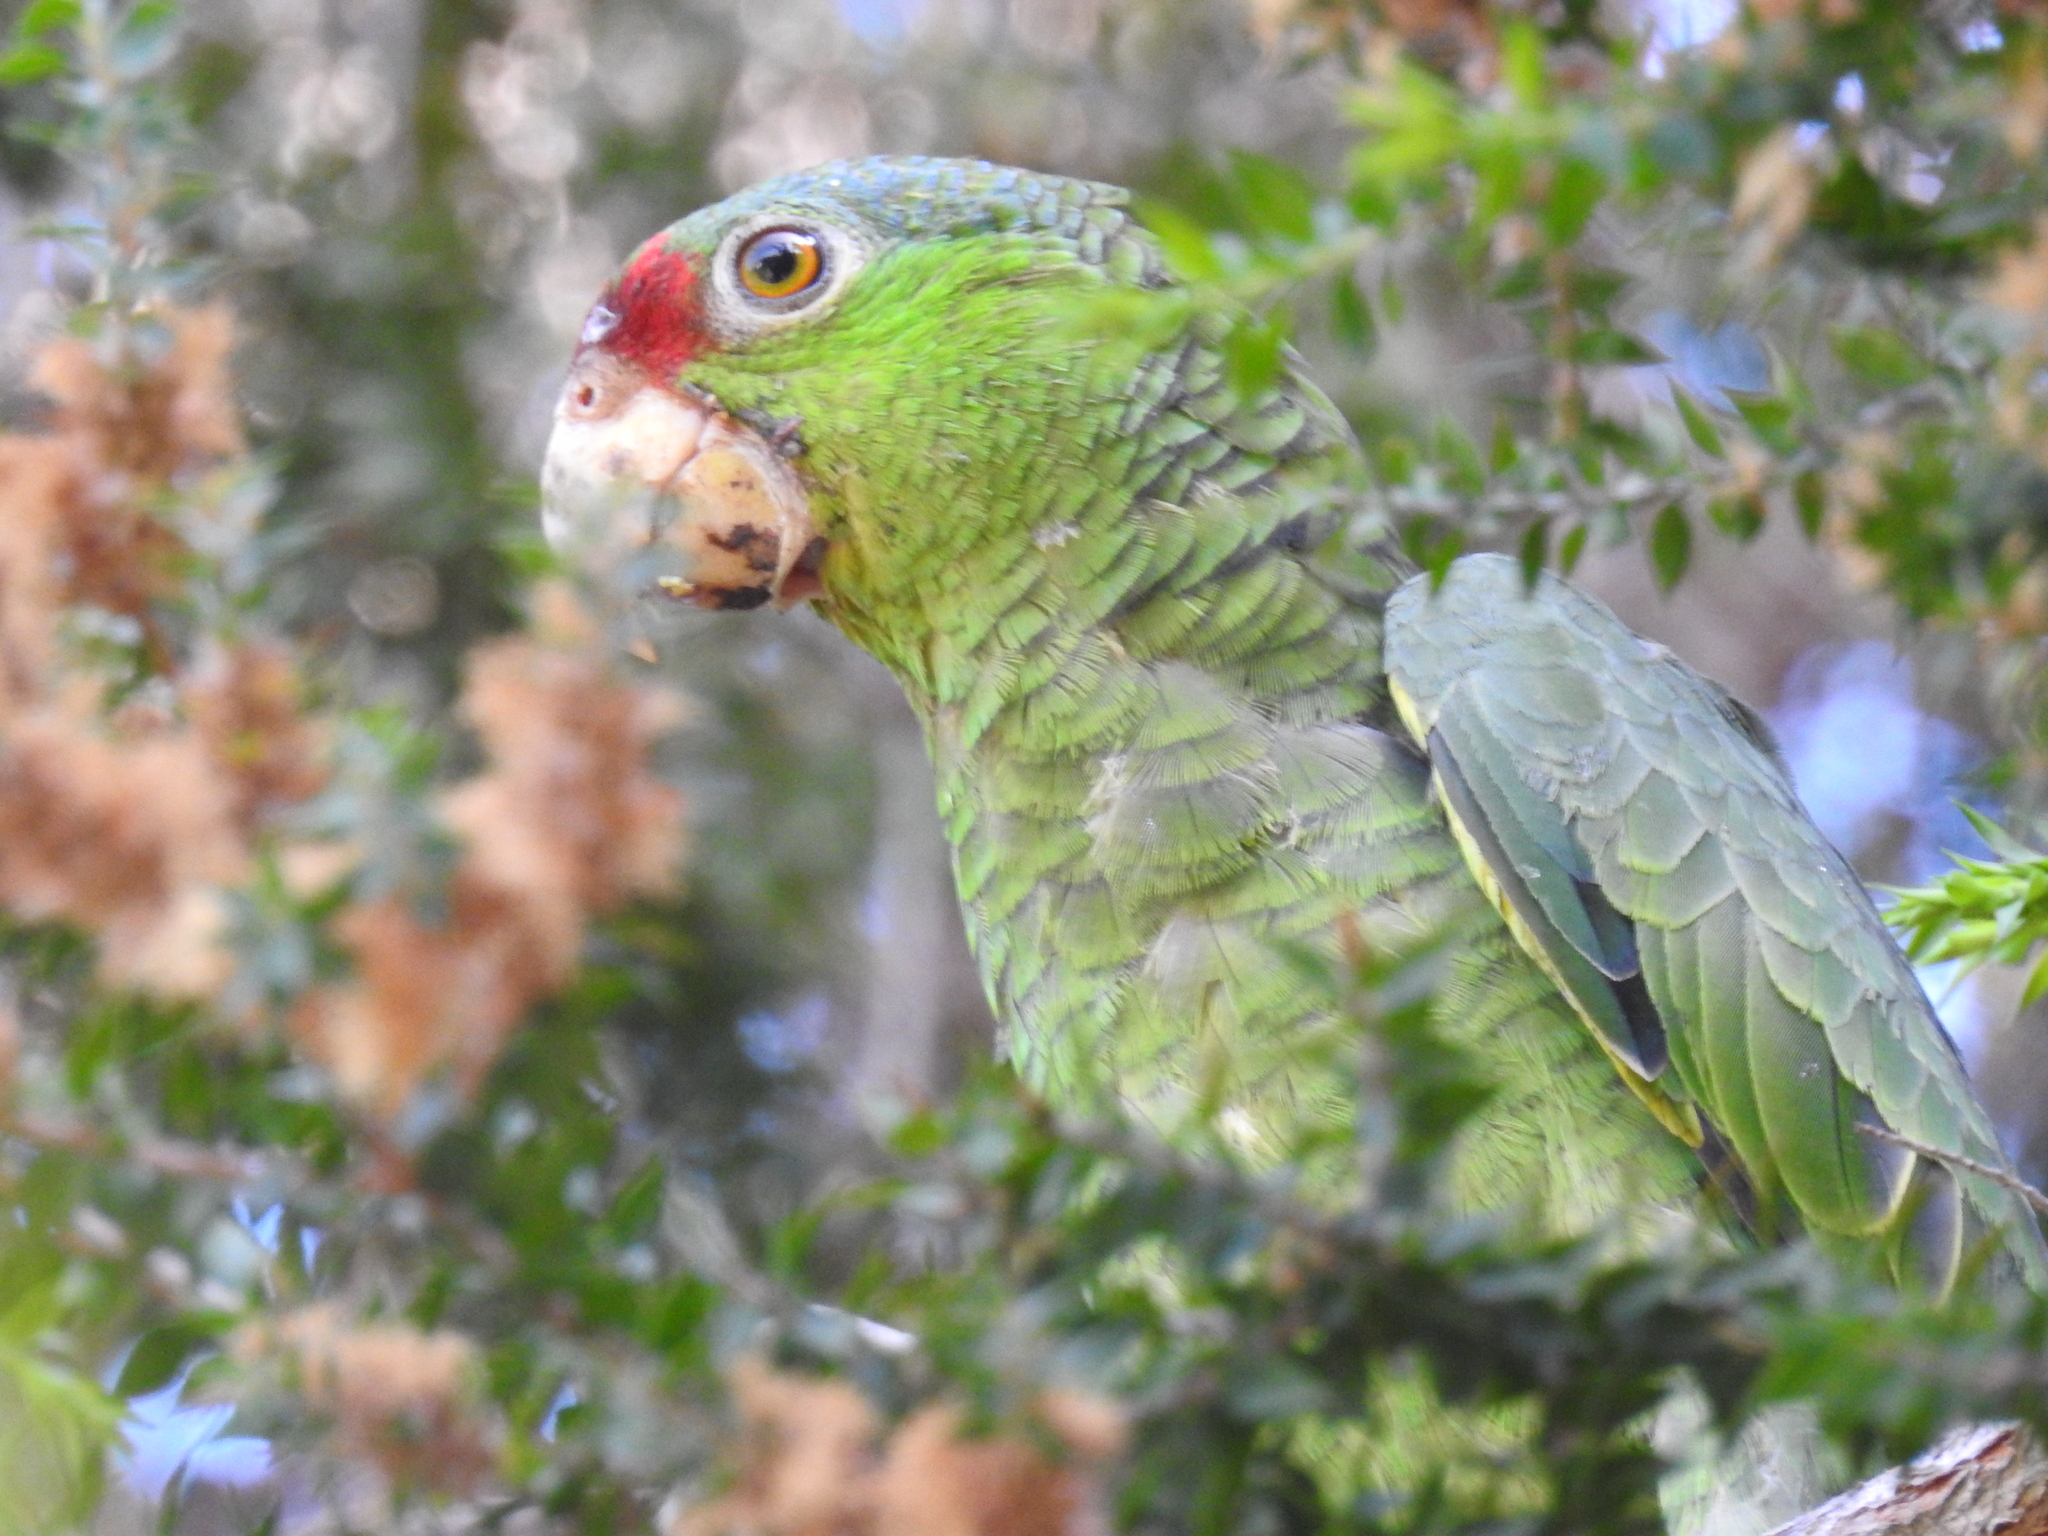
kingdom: Animalia
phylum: Chordata
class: Aves
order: Psittaciformes
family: Psittacidae
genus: Amazona
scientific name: Amazona viridigenalis
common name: Red-crowned amazon
